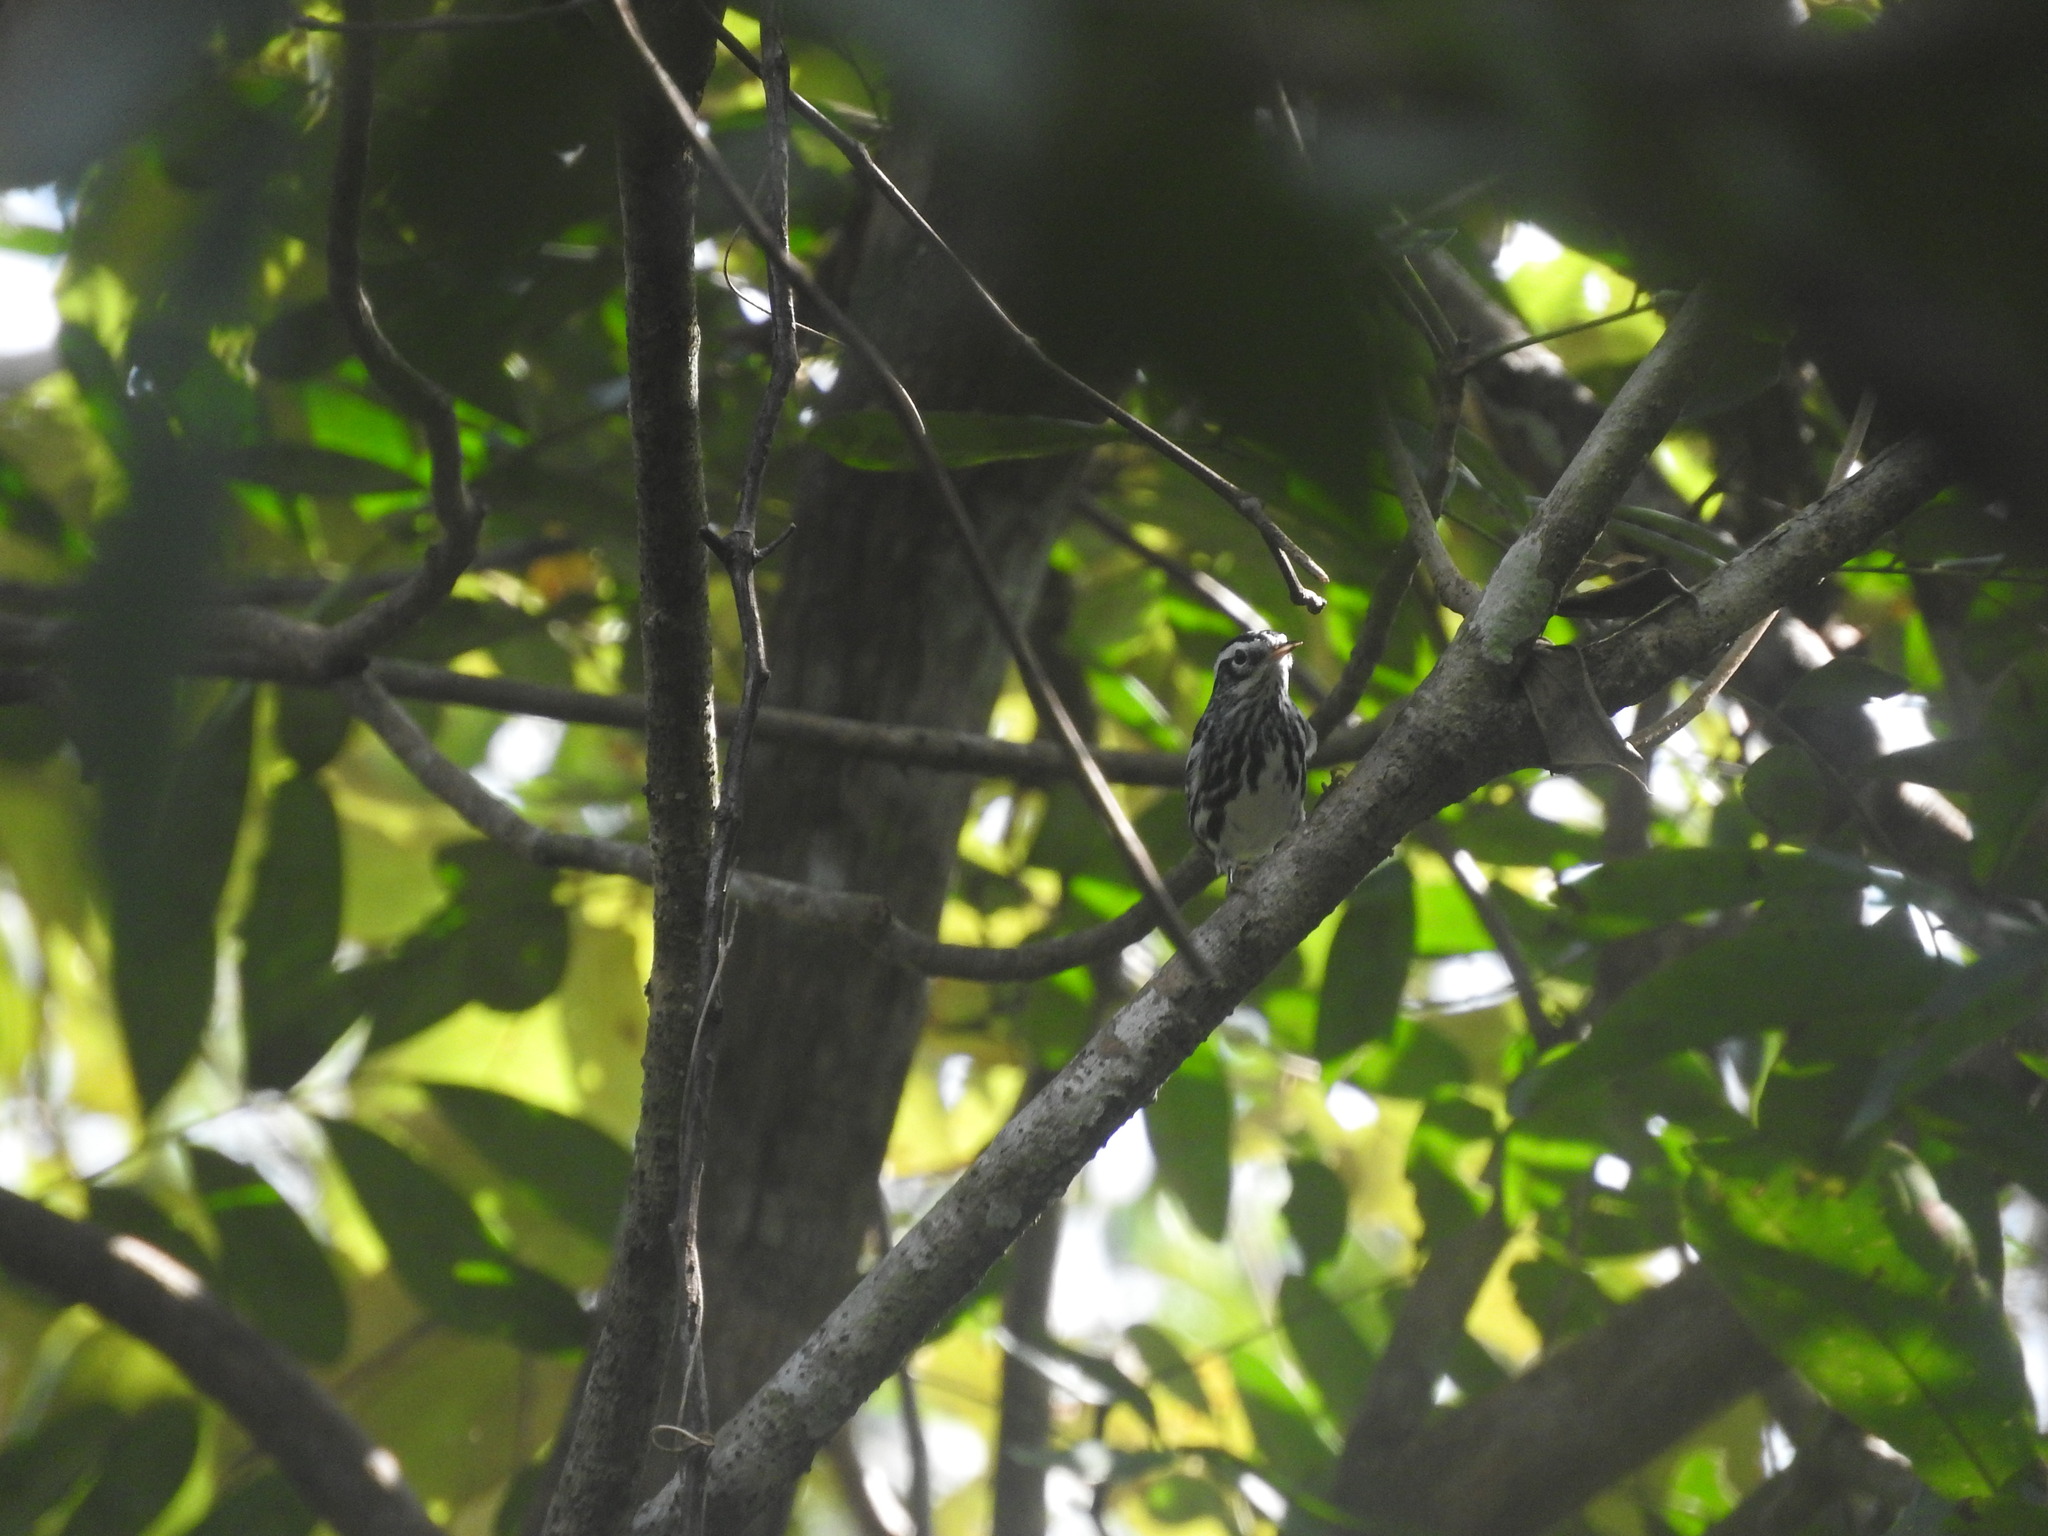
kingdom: Animalia
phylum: Chordata
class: Aves
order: Passeriformes
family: Parulidae
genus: Mniotilta
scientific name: Mniotilta varia
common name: Black-and-white warbler
